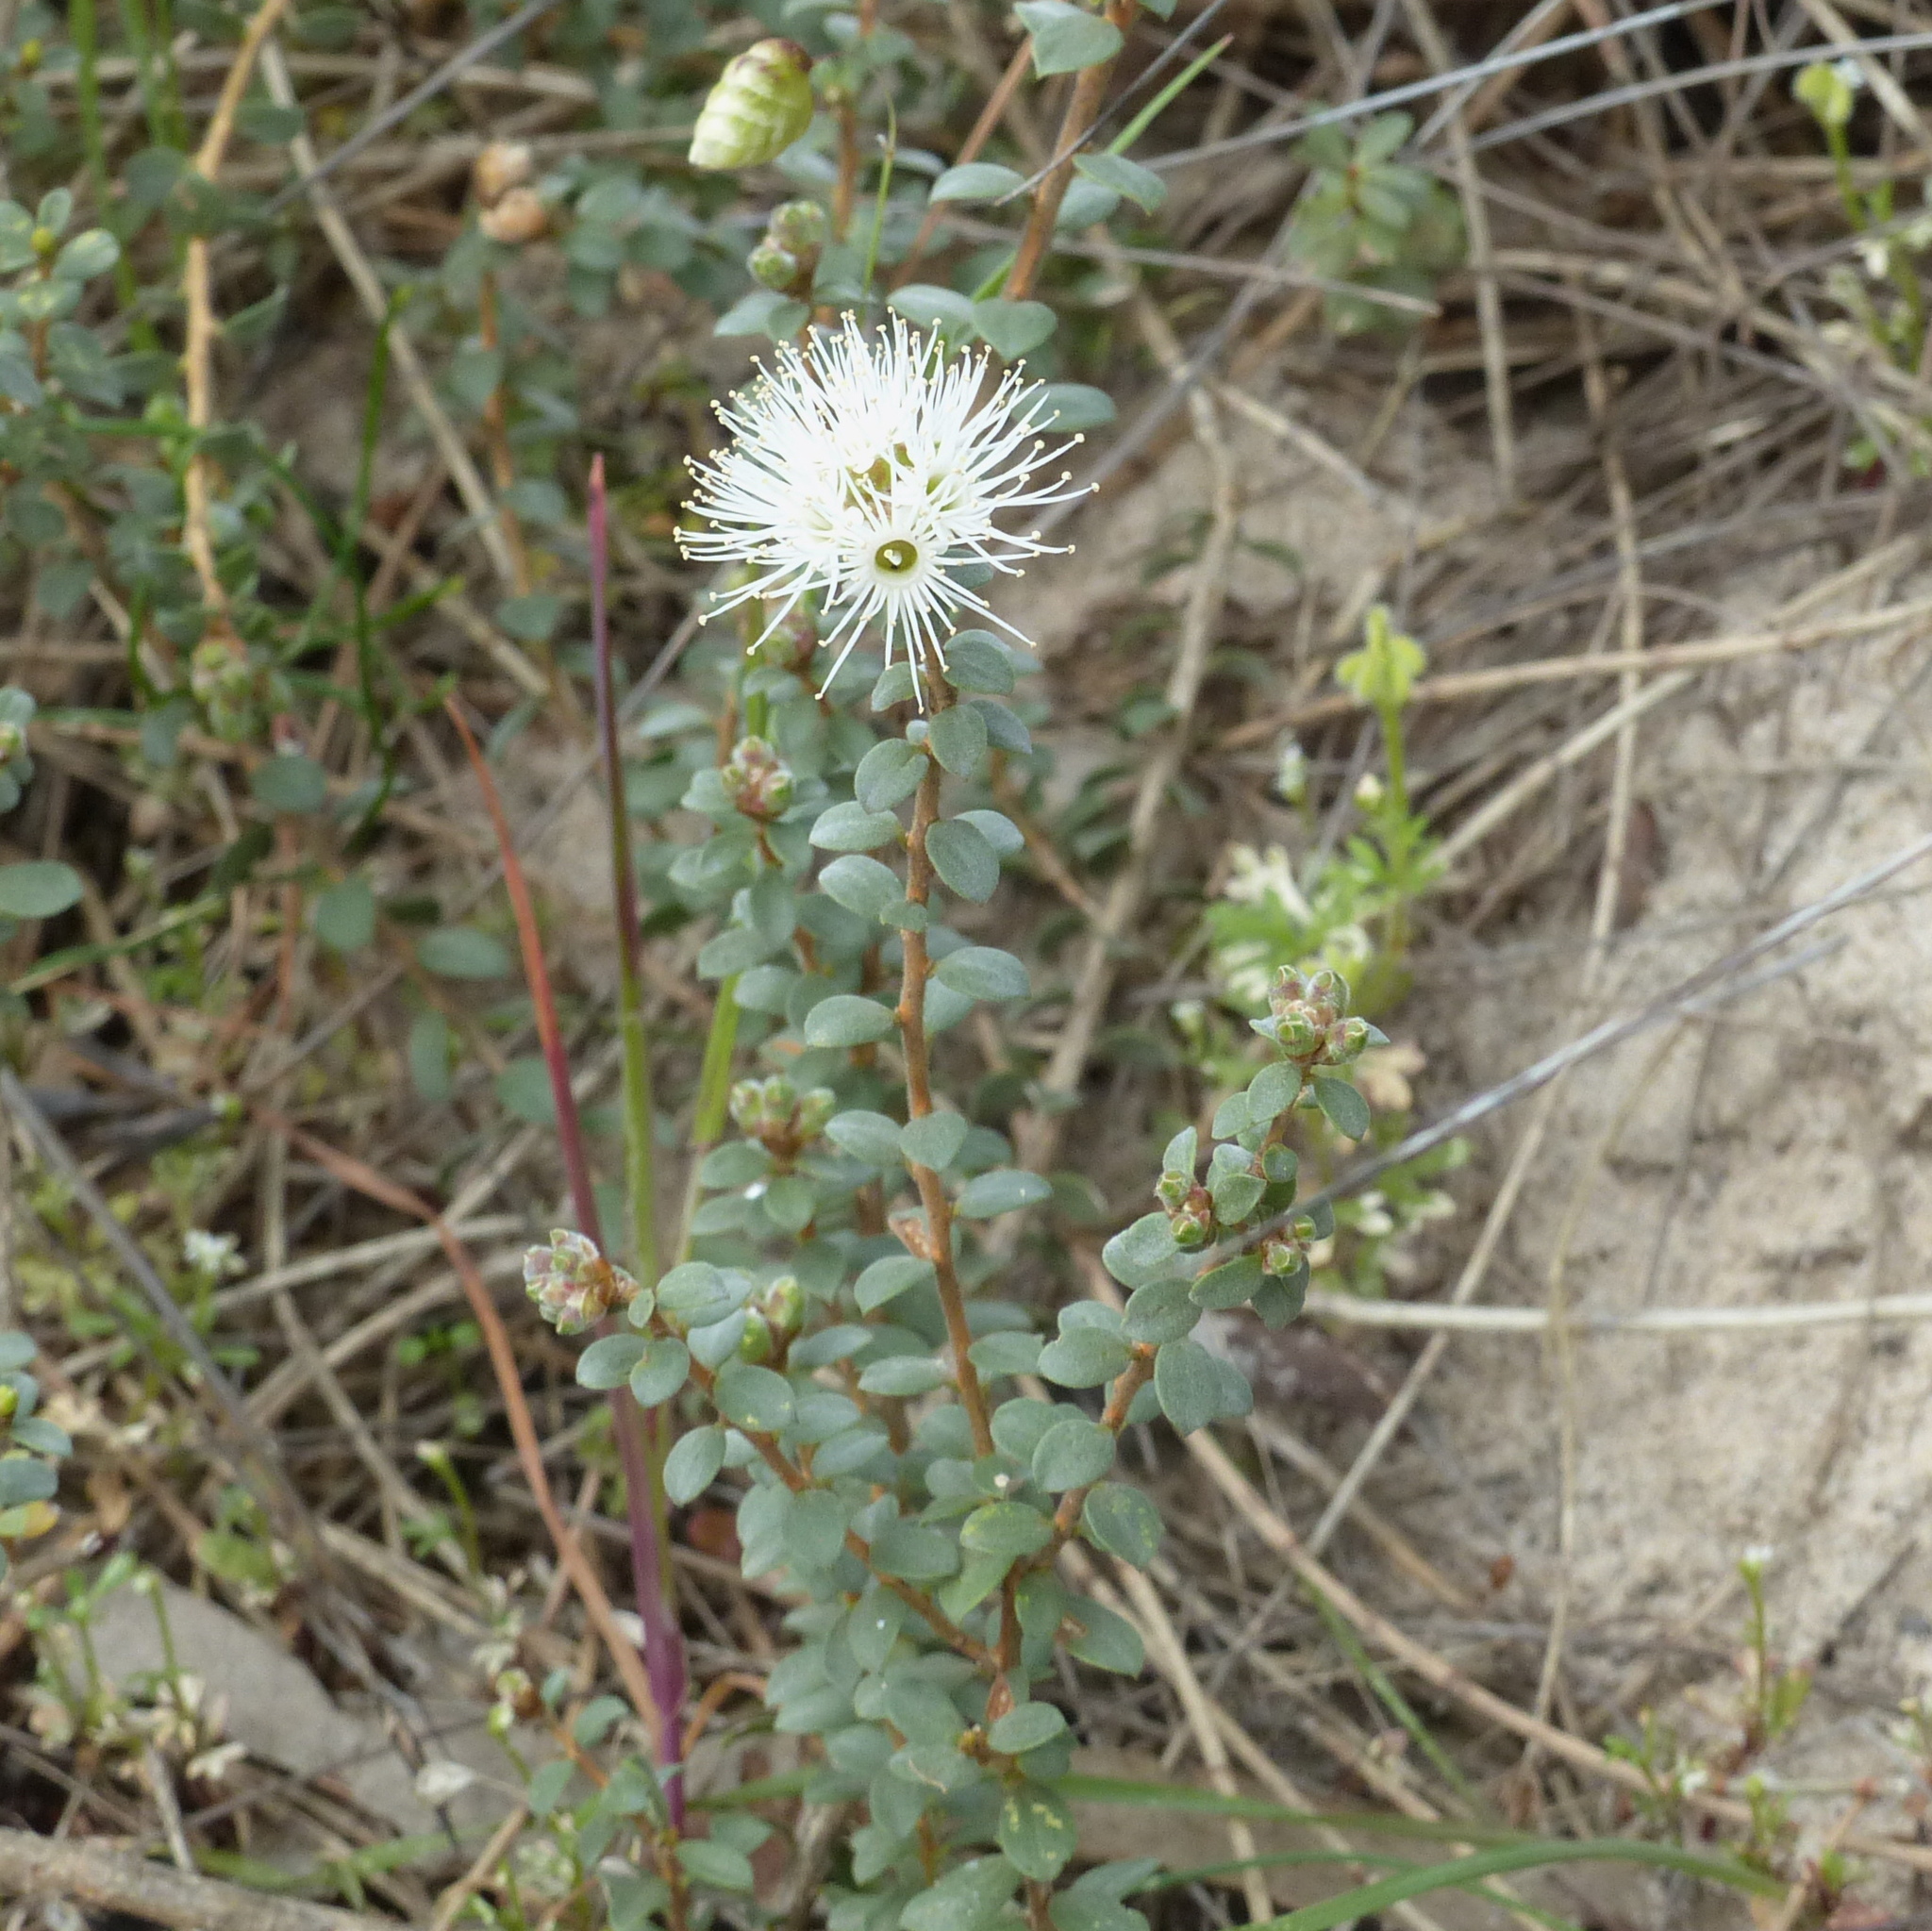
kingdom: Plantae
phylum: Tracheophyta
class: Magnoliopsida
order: Myrtales
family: Myrtaceae
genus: Kunzea
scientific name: Kunzea pomifera
